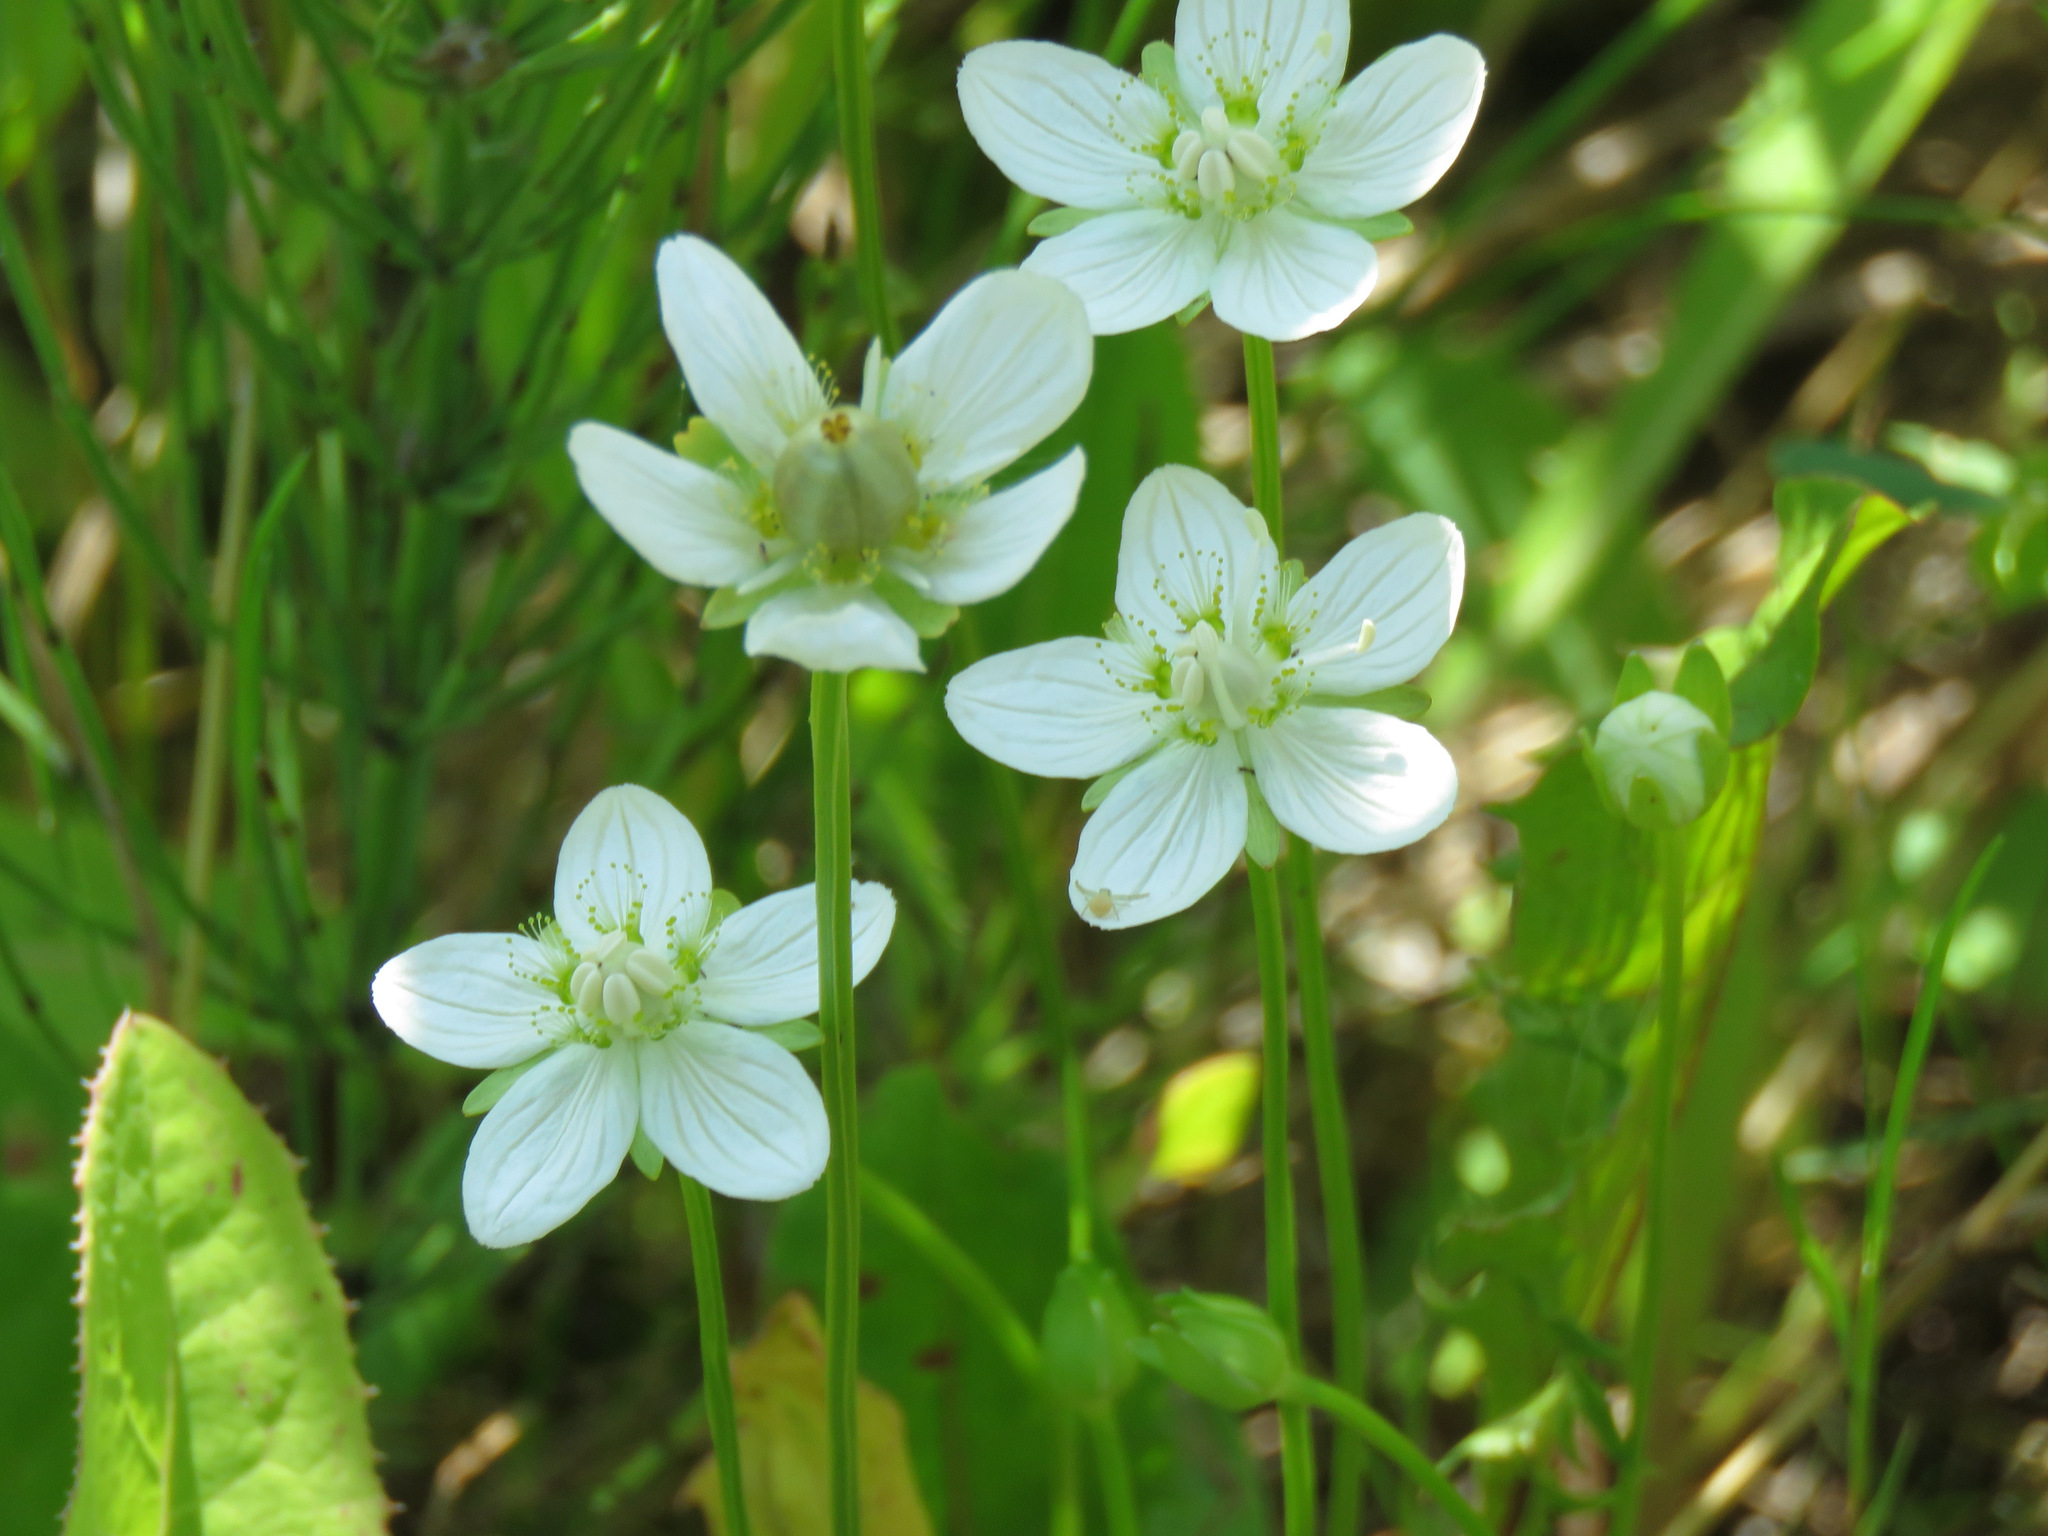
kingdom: Plantae
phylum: Tracheophyta
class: Magnoliopsida
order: Celastrales
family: Parnassiaceae
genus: Parnassia
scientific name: Parnassia palustris
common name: Grass-of-parnassus
